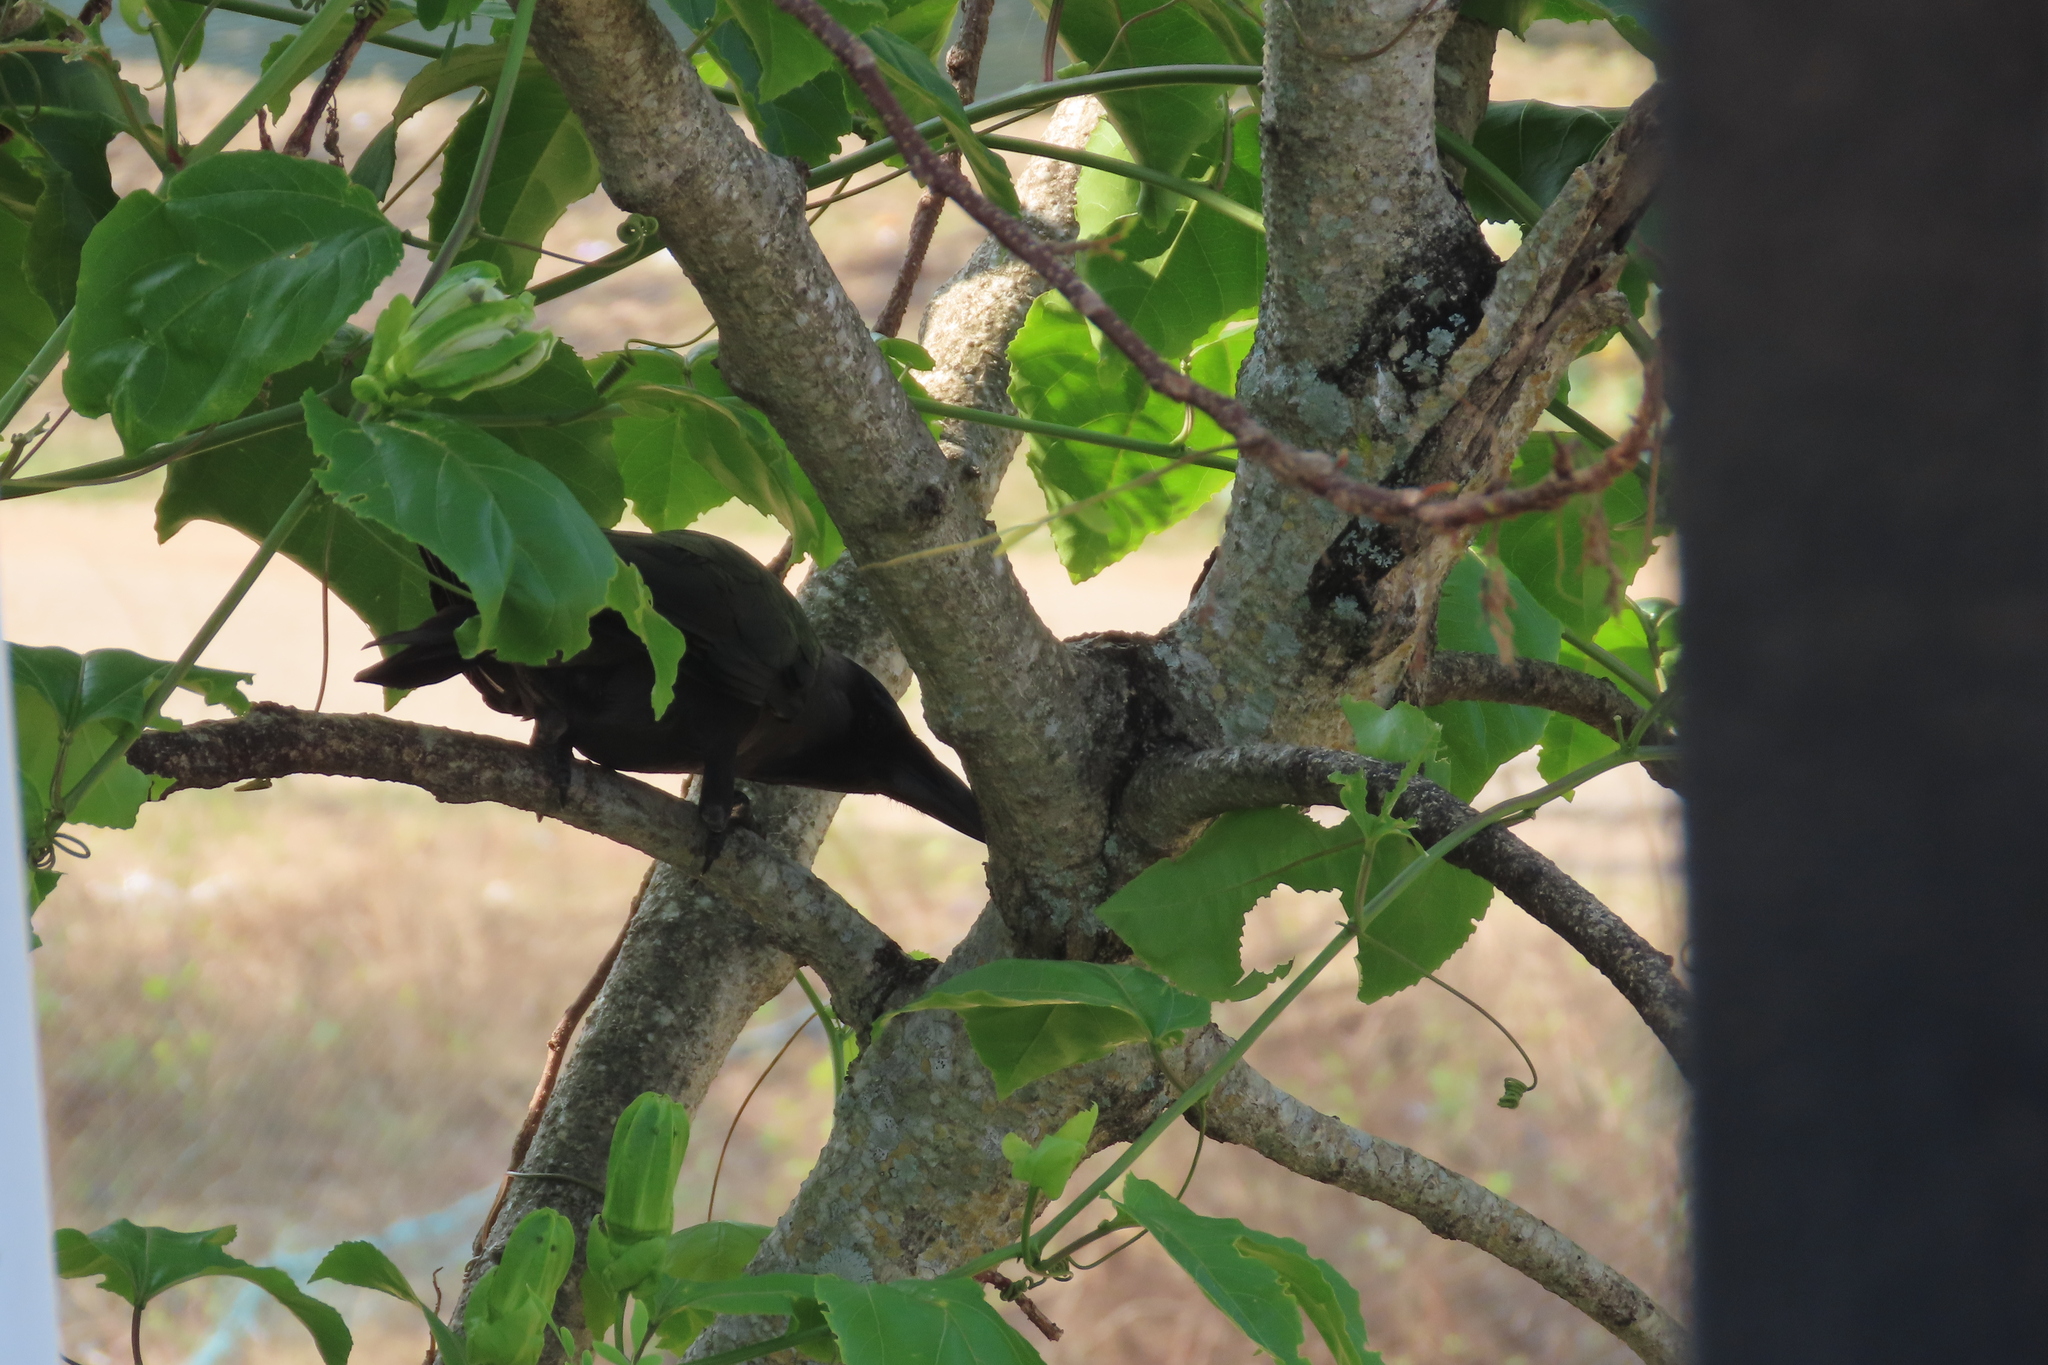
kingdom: Animalia
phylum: Chordata
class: Aves
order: Passeriformes
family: Corvidae
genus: Corvus
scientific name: Corvus splendens
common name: House crow
